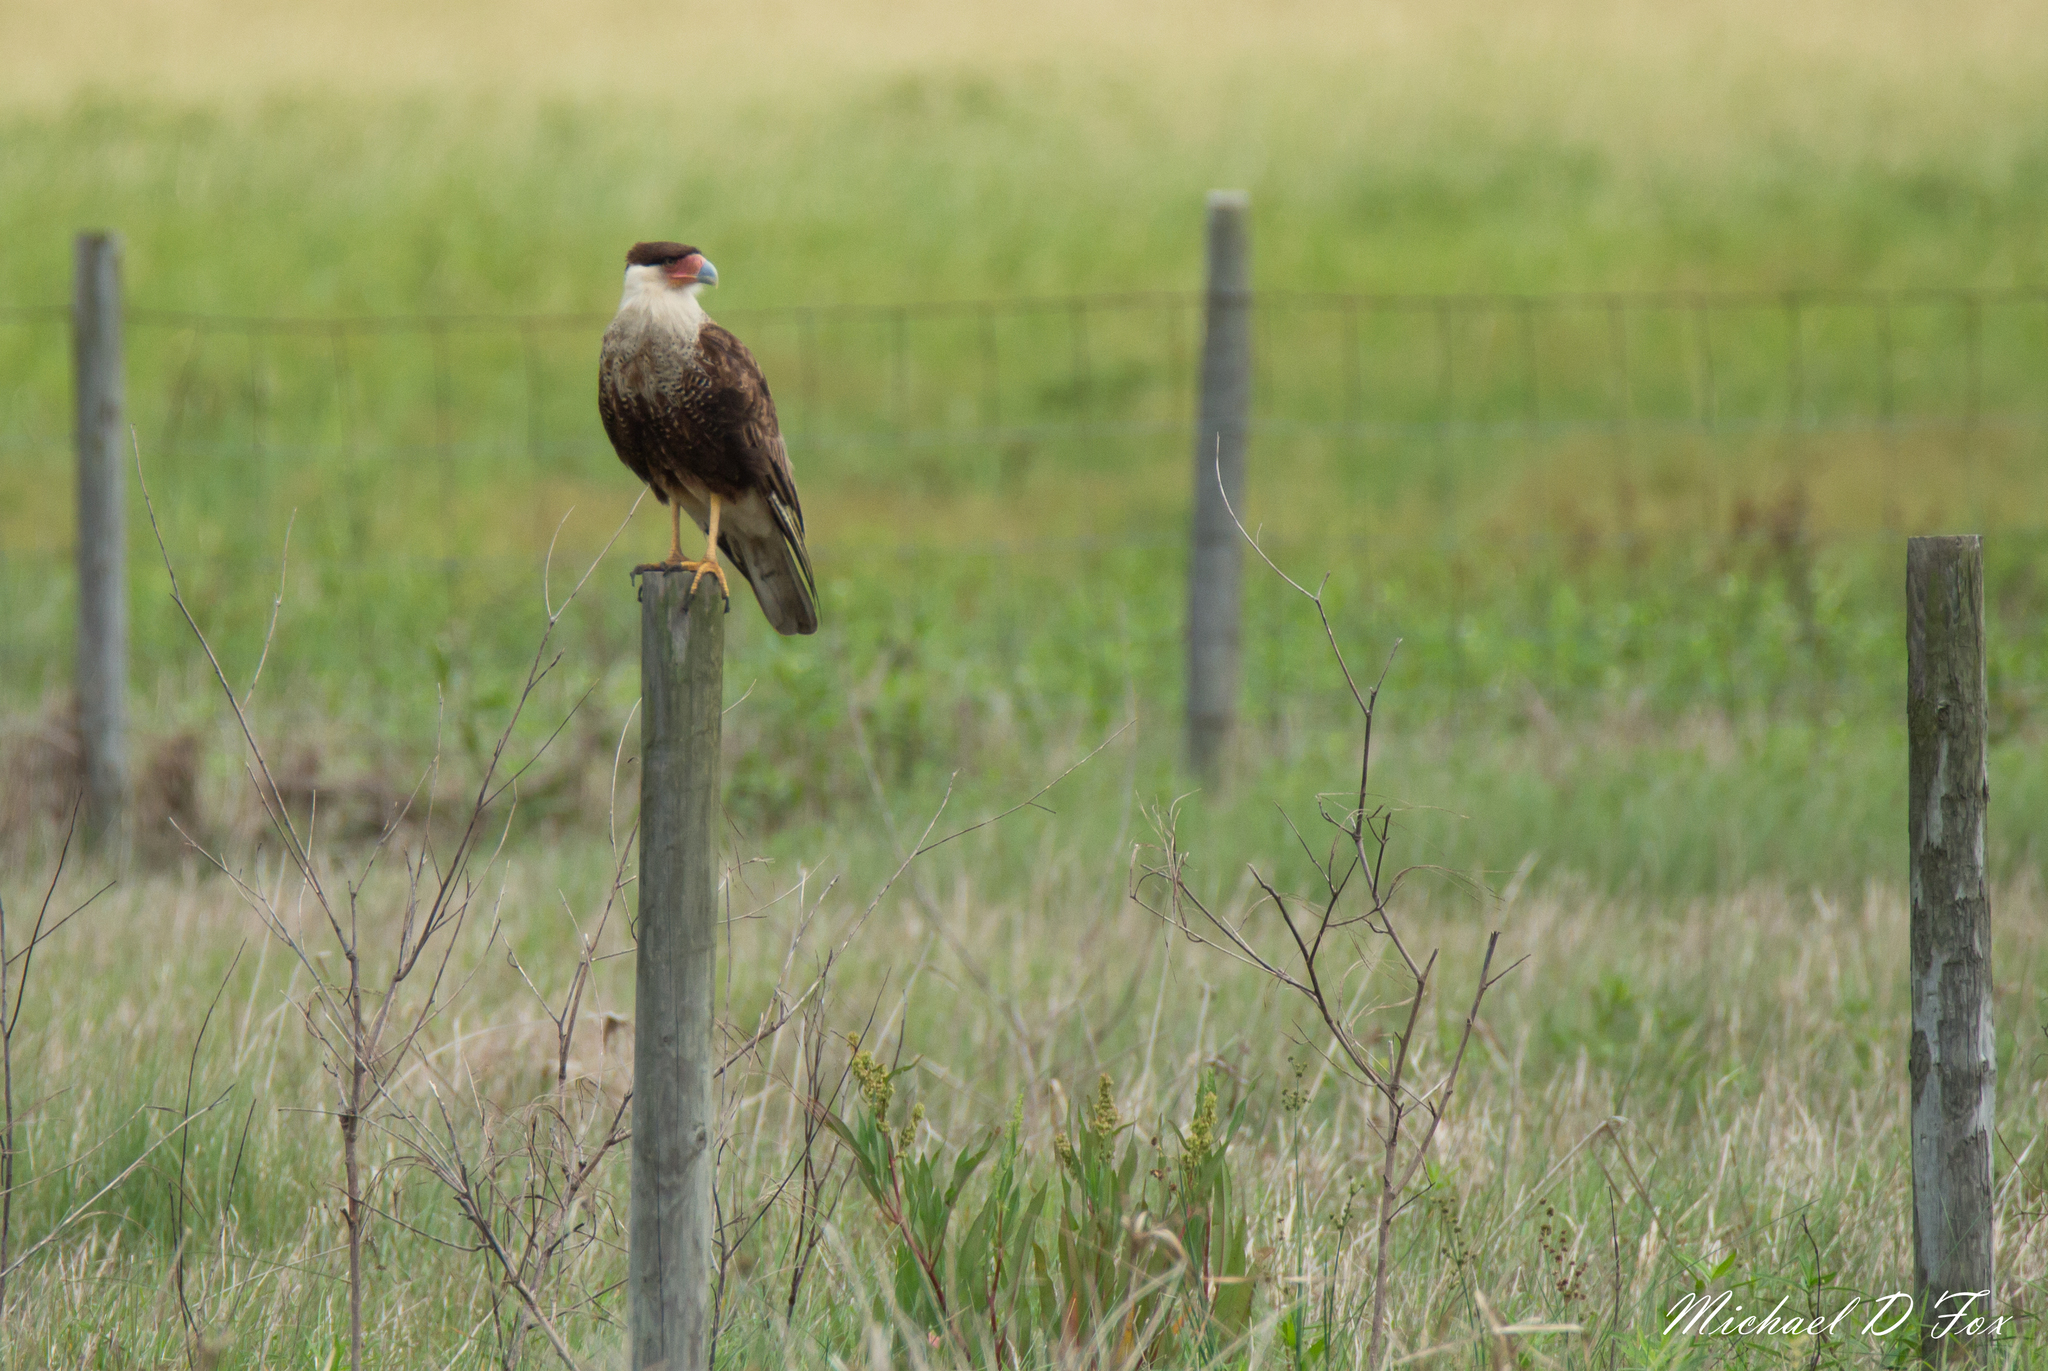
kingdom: Animalia
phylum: Chordata
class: Aves
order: Falconiformes
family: Falconidae
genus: Caracara
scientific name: Caracara plancus
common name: Southern caracara
